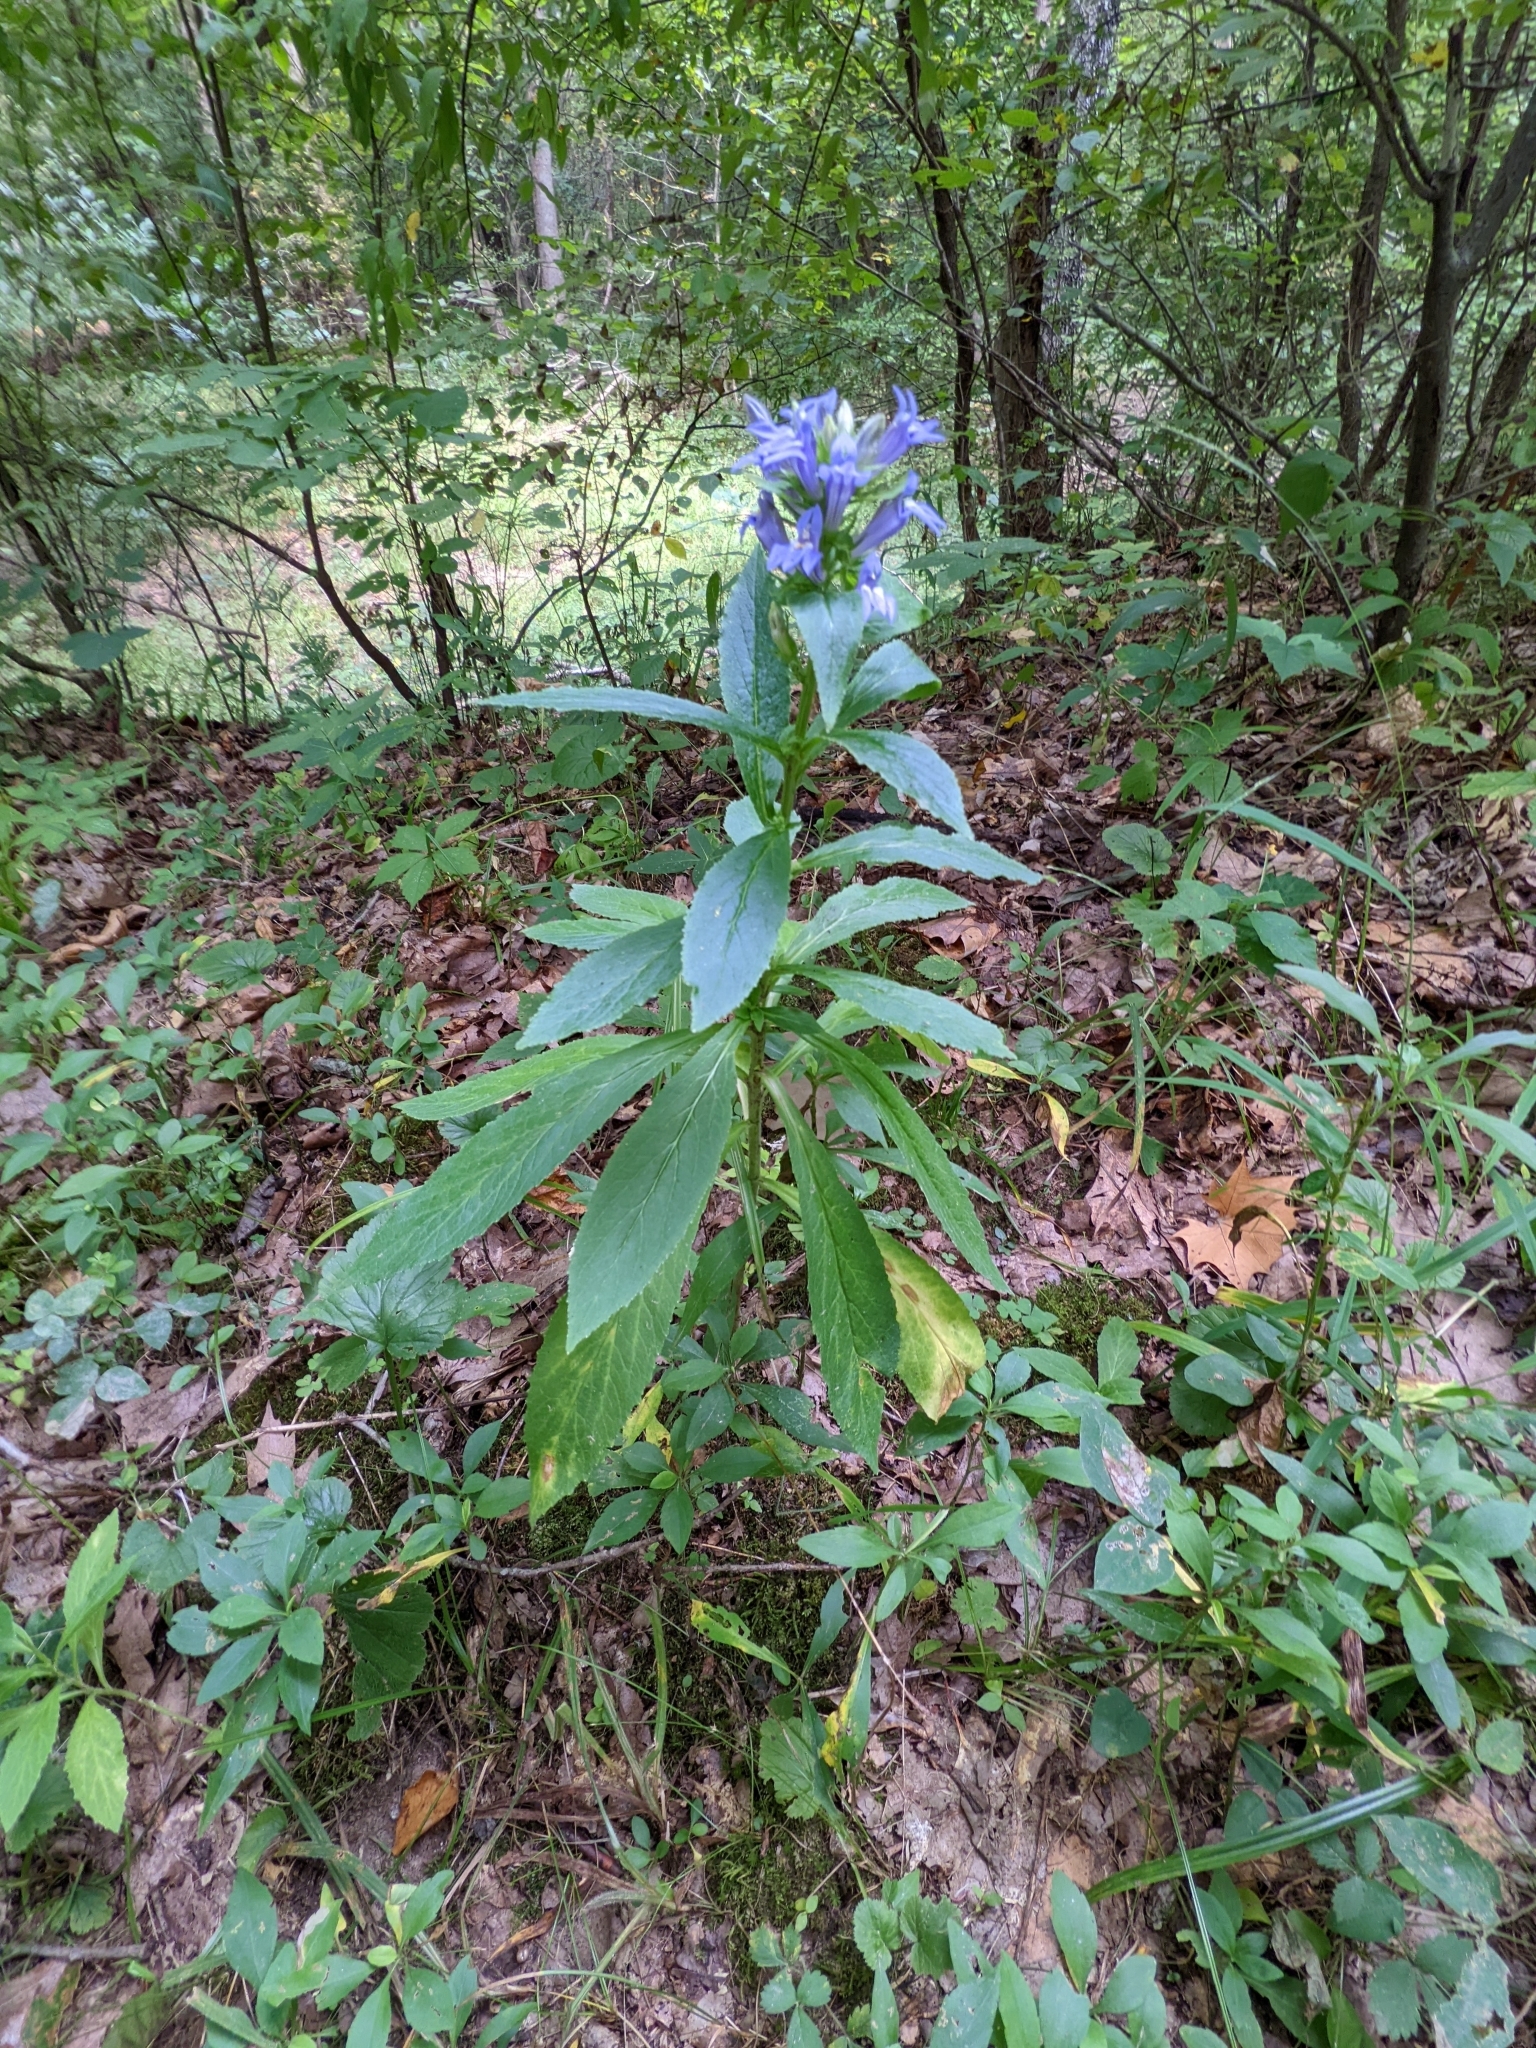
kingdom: Plantae
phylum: Tracheophyta
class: Magnoliopsida
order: Asterales
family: Campanulaceae
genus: Lobelia
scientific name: Lobelia siphilitica
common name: Great lobelia
